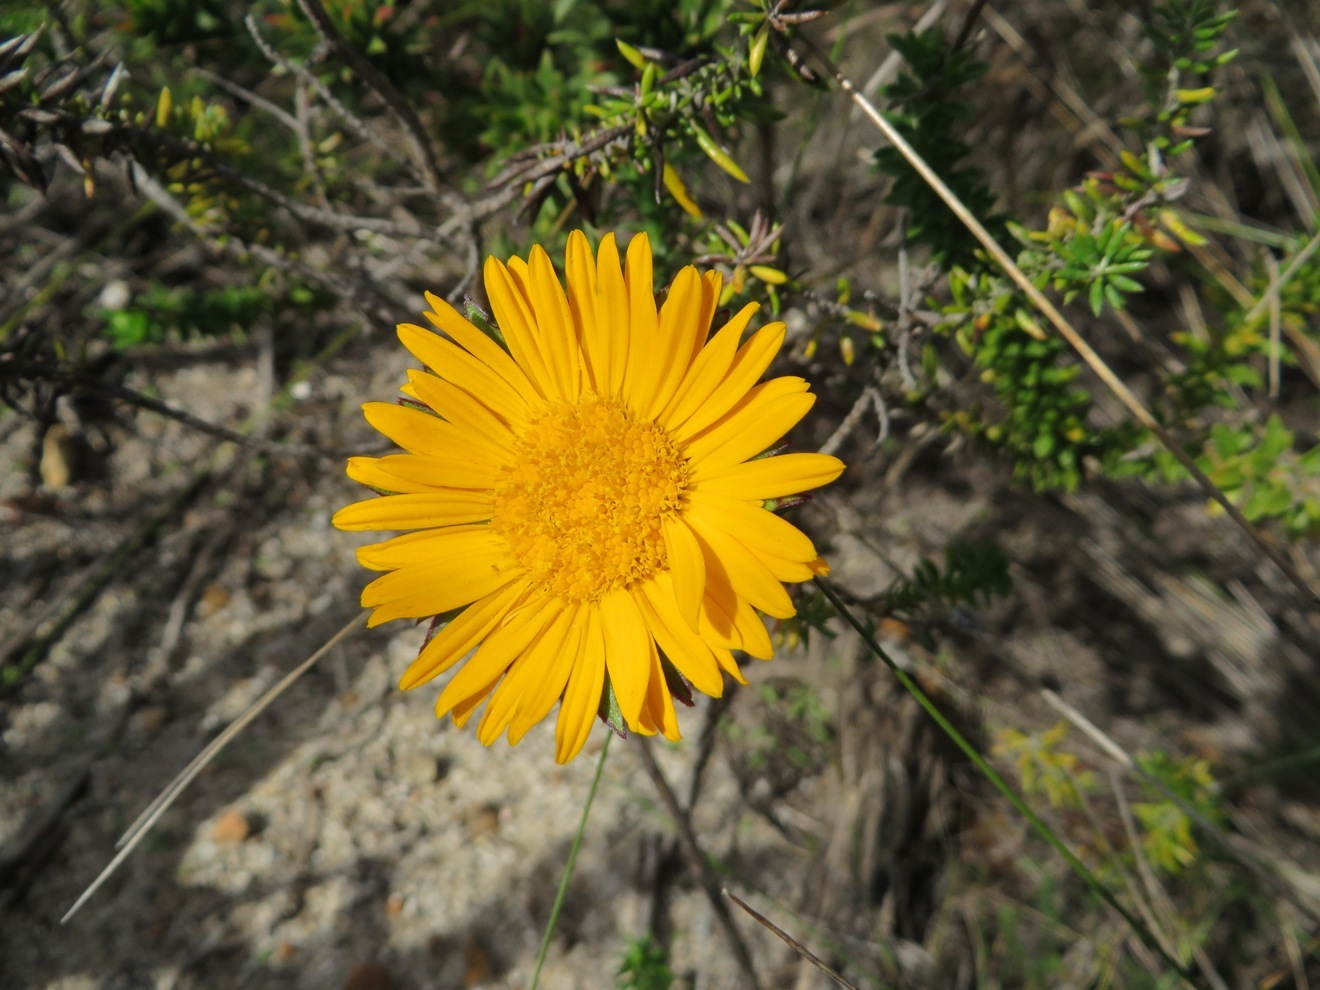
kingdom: Plantae
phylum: Tracheophyta
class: Magnoliopsida
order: Asterales
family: Asteraceae
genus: Oedera
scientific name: Oedera capensis
